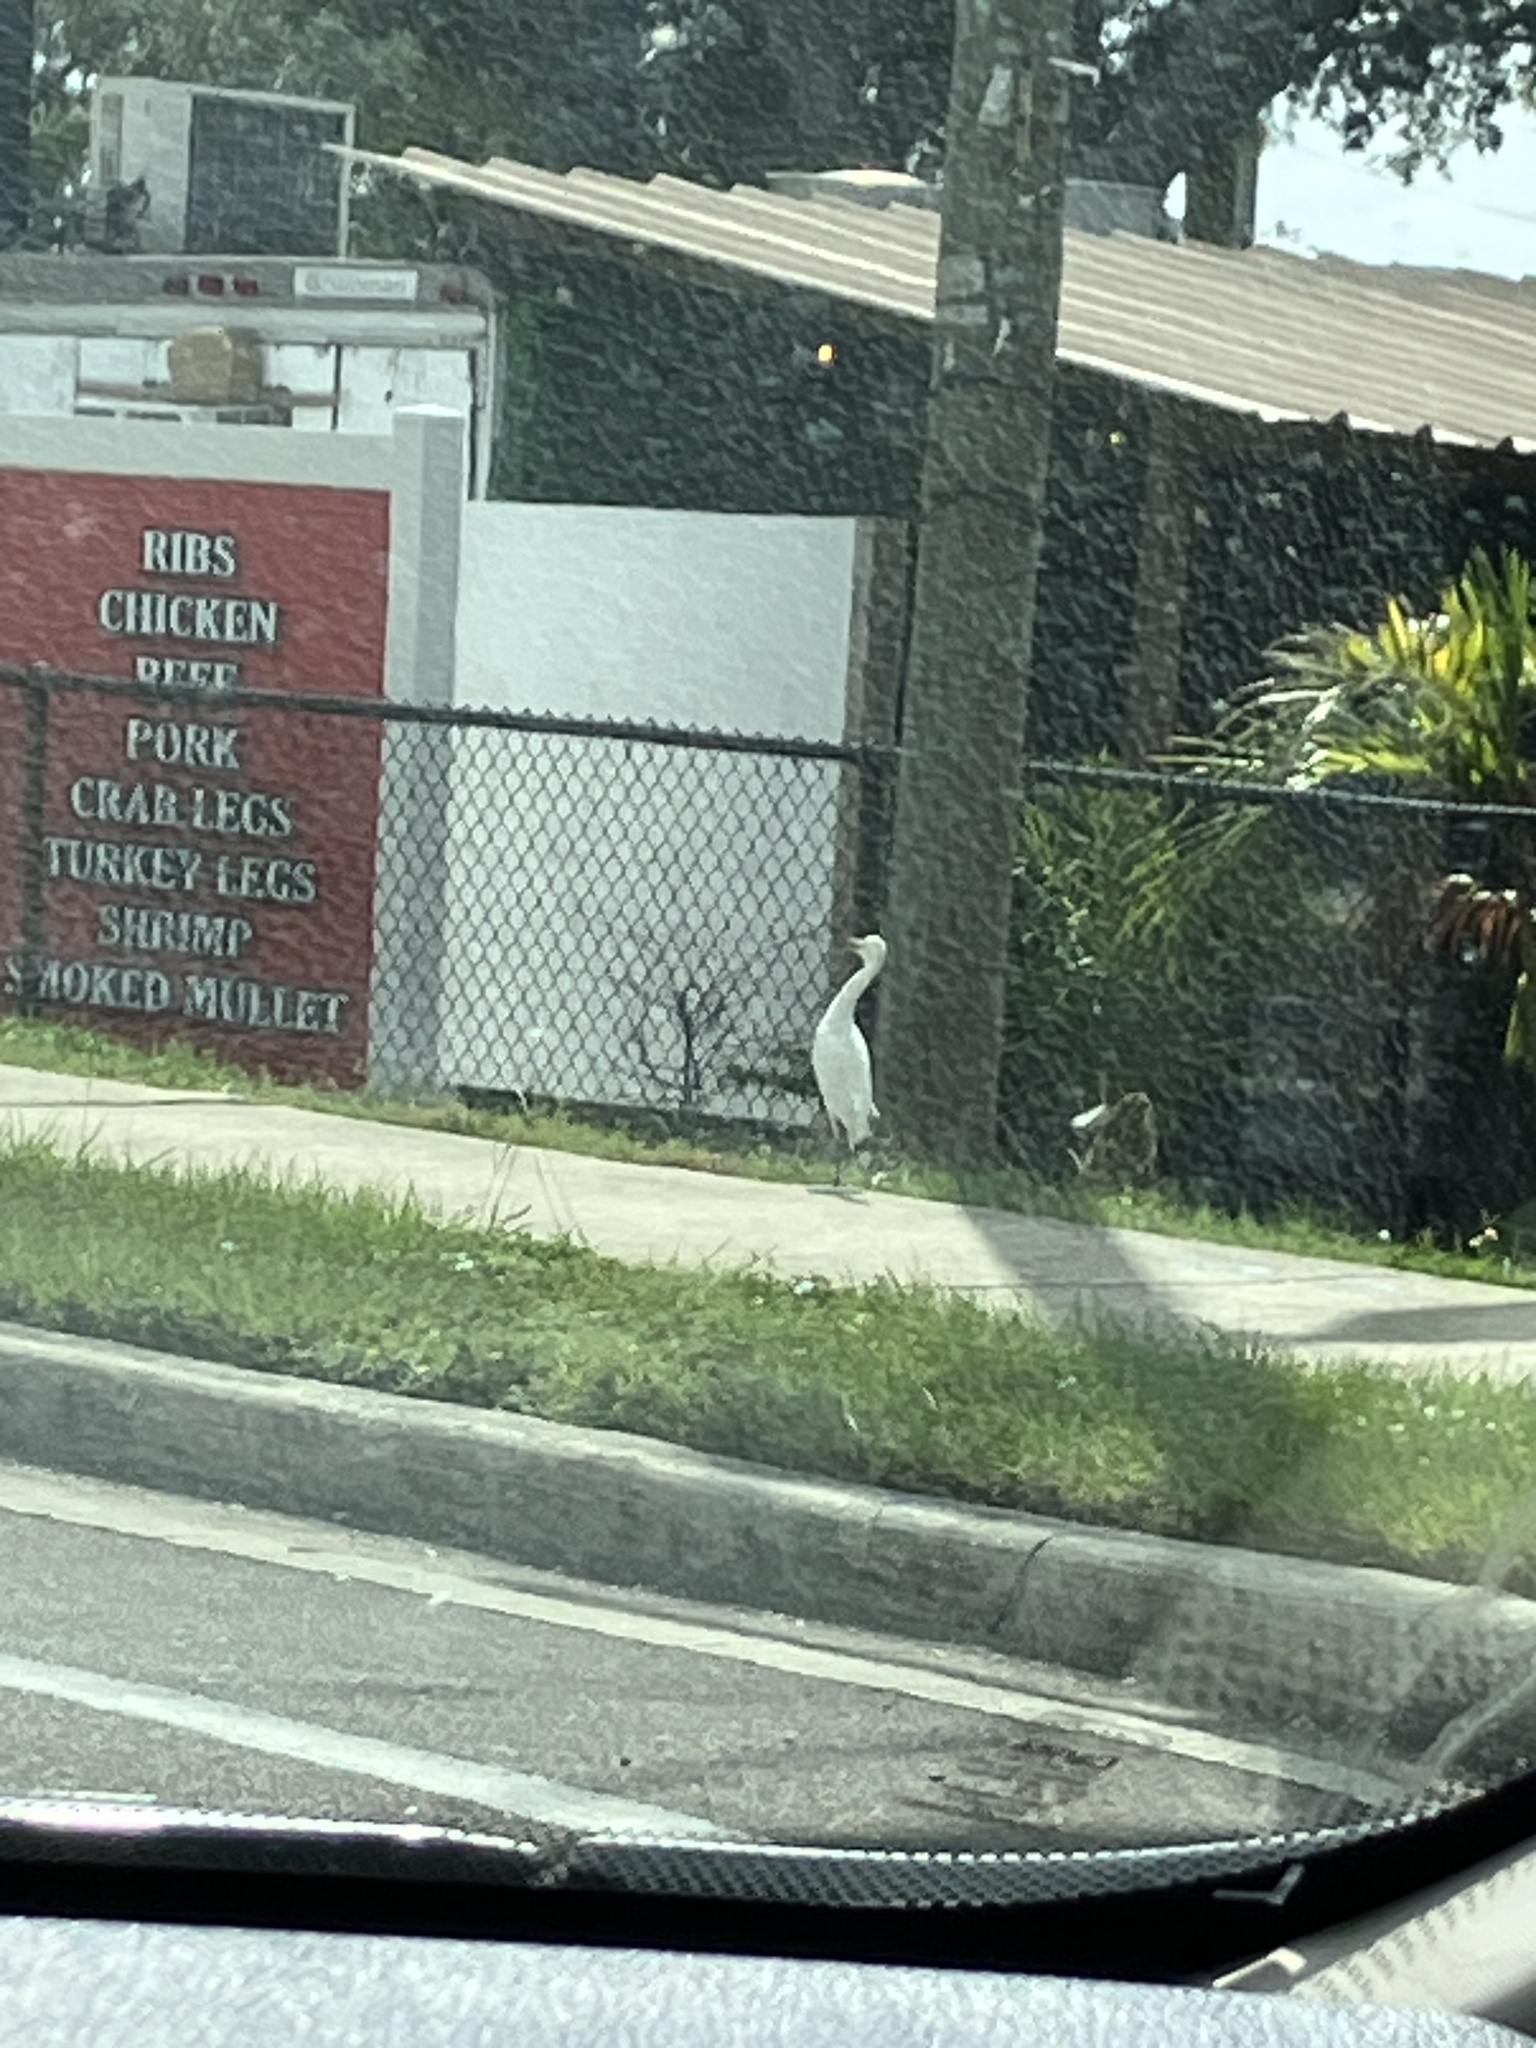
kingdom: Animalia
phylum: Chordata
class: Aves
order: Pelecaniformes
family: Ardeidae
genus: Bubulcus
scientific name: Bubulcus ibis
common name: Cattle egret
